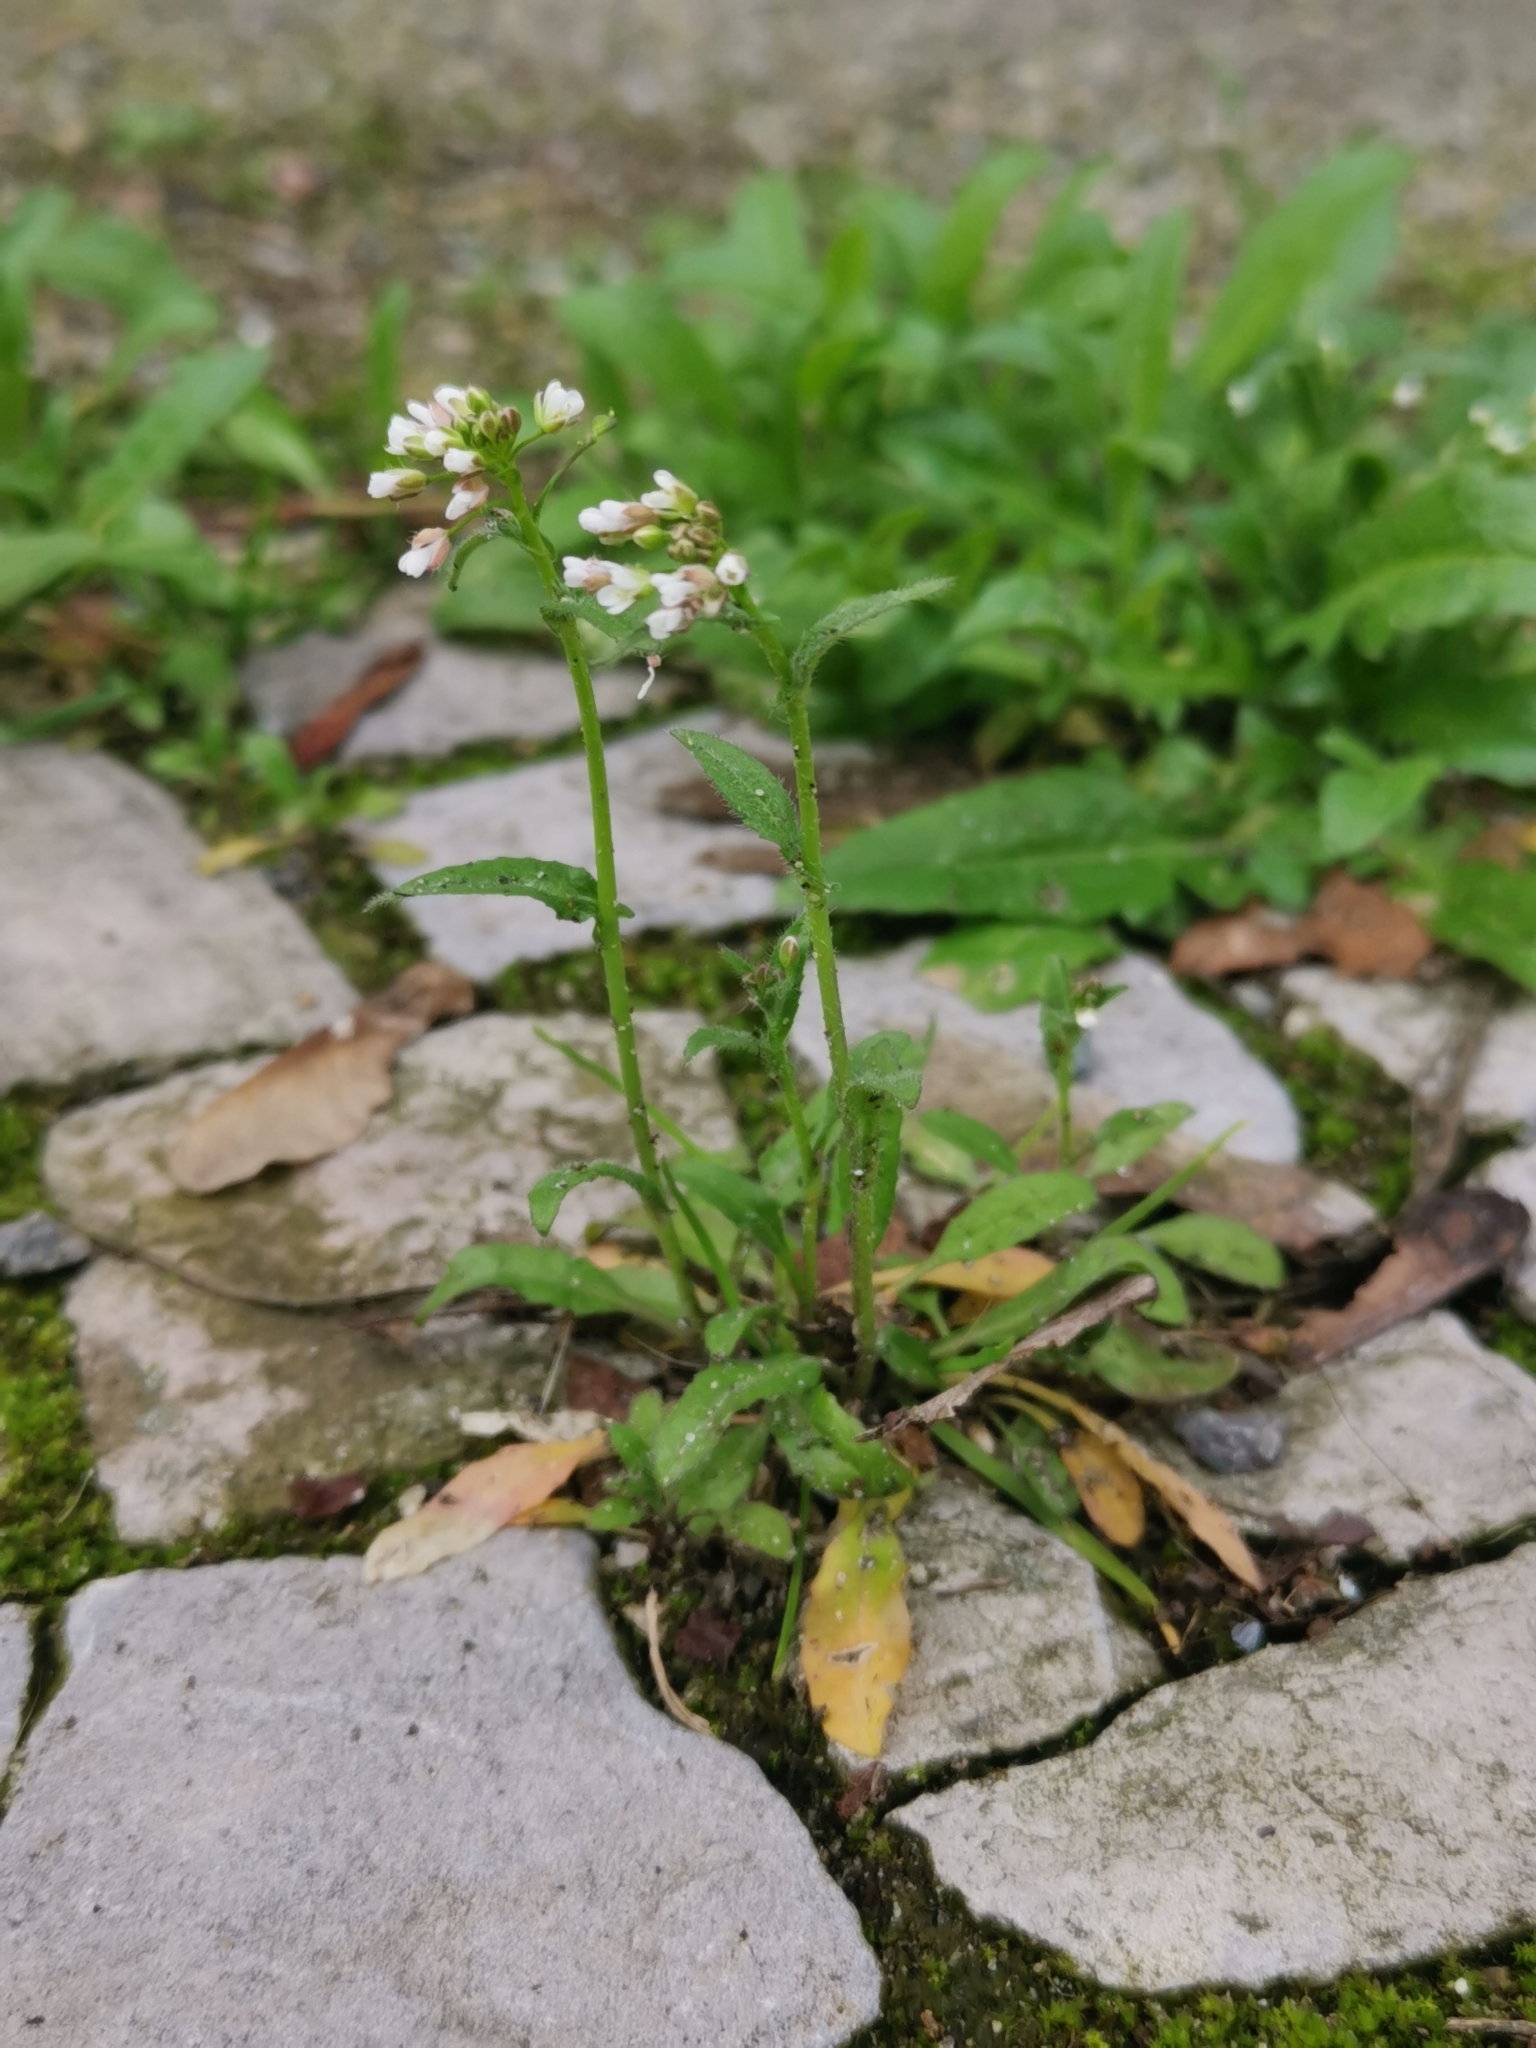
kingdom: Plantae
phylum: Tracheophyta
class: Magnoliopsida
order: Brassicales
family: Brassicaceae
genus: Capsella
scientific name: Capsella bursa-pastoris
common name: Shepherd's purse
